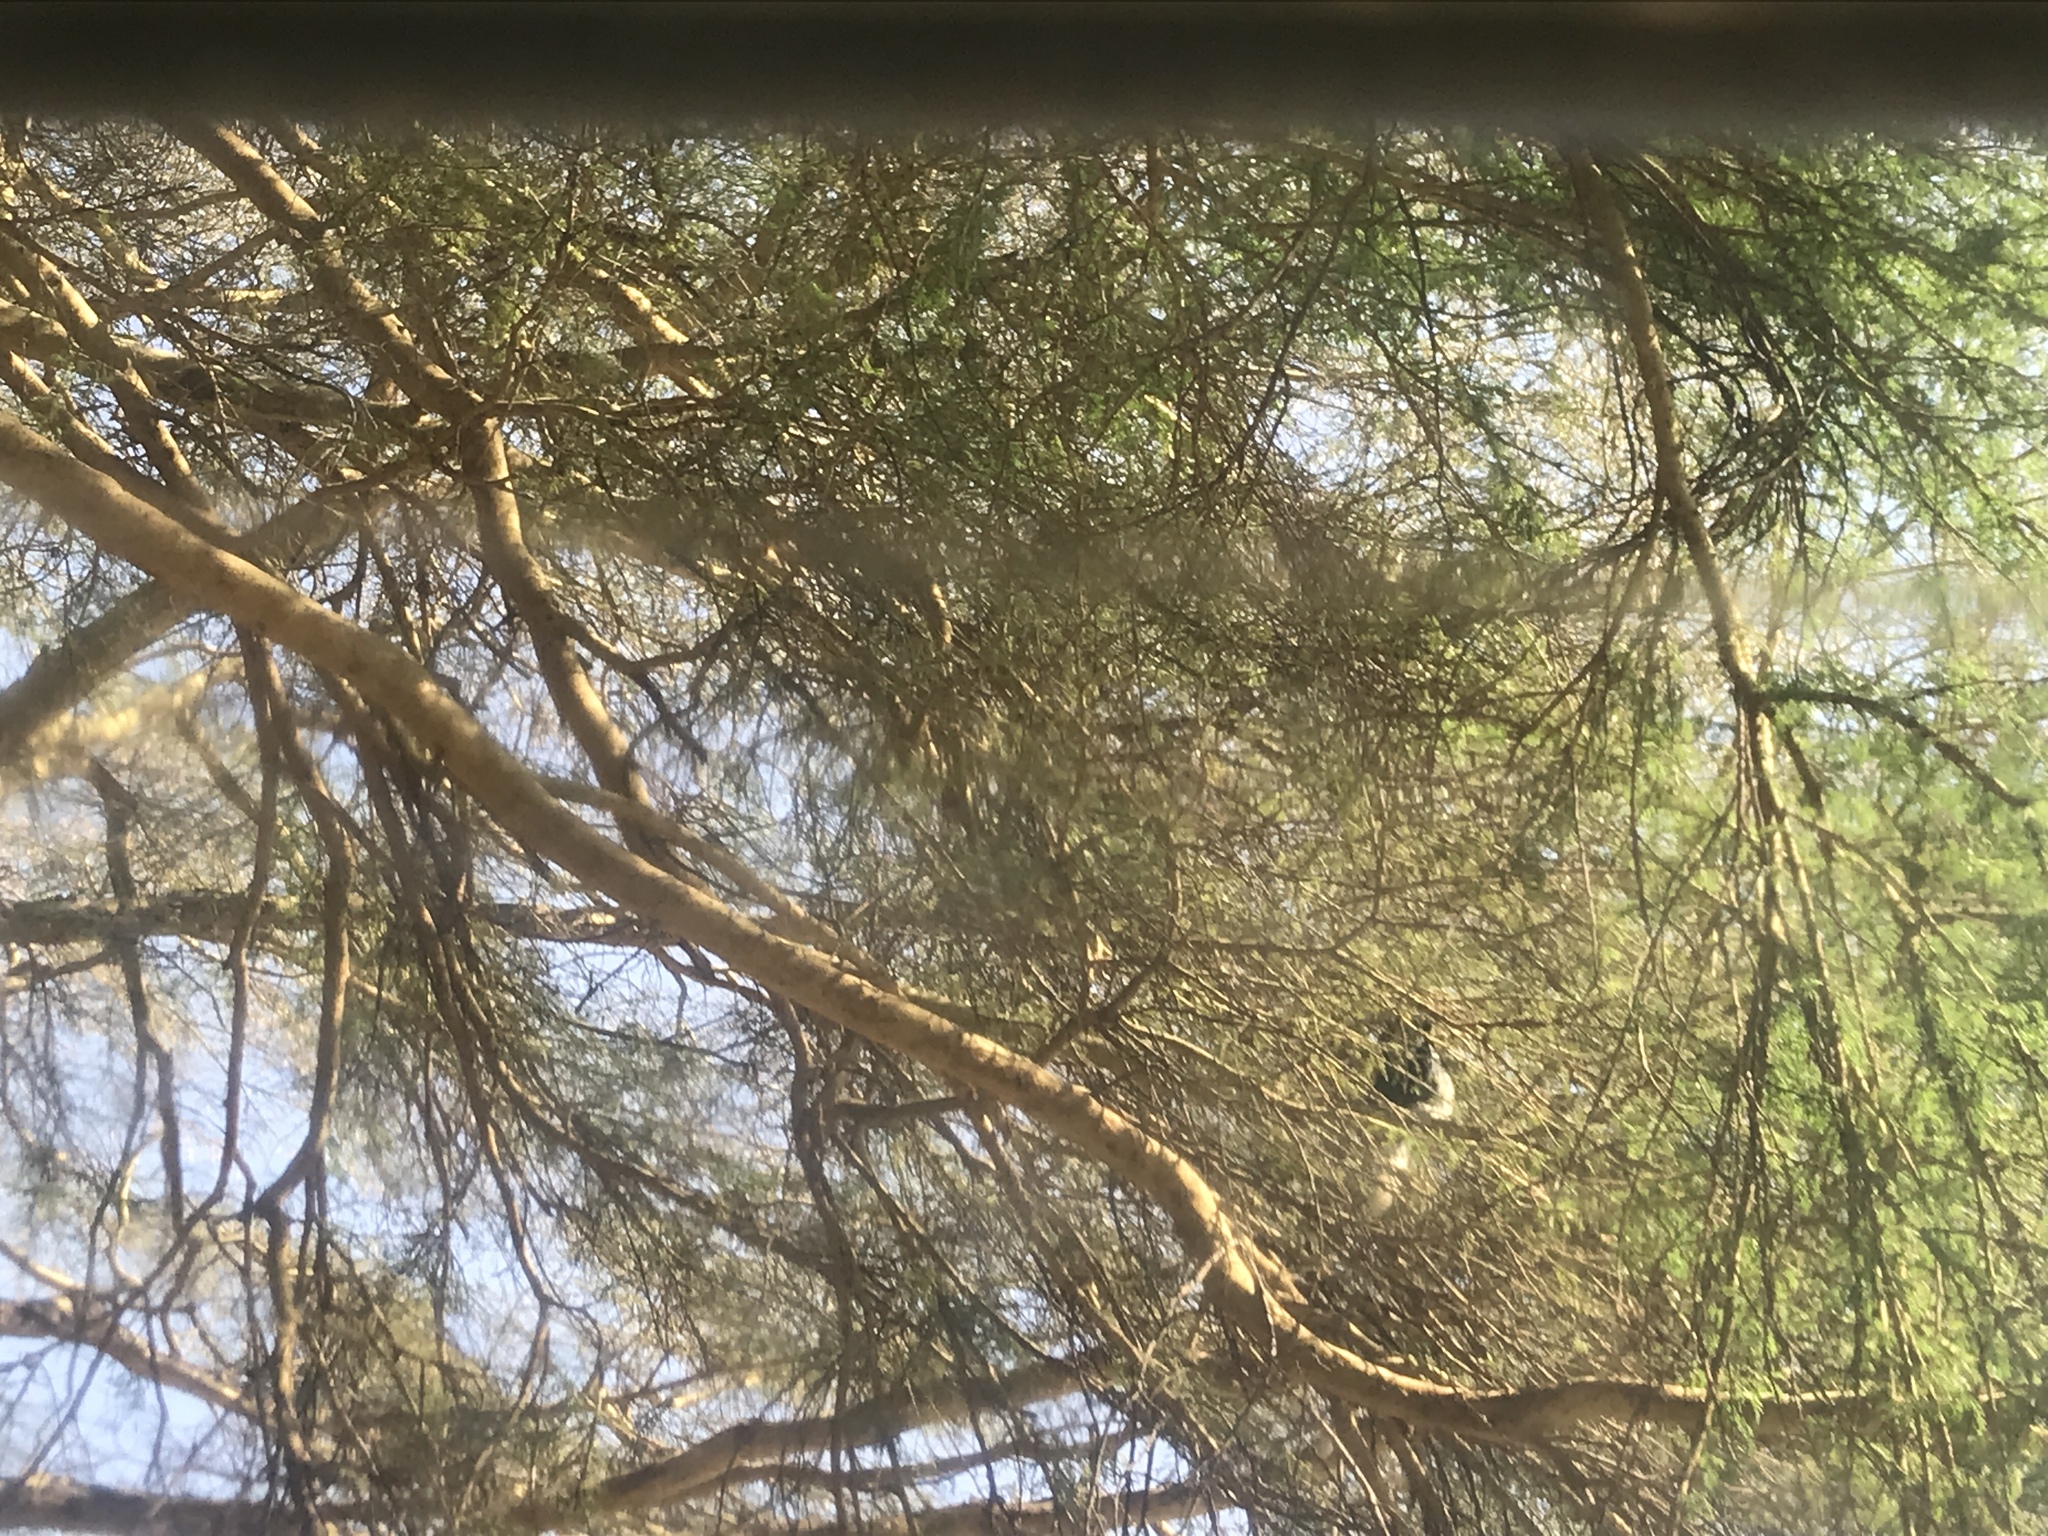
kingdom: Animalia
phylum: Chordata
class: Mammalia
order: Primates
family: Cercopithecidae
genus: Colobus
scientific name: Colobus guereza
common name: Mantled guereza
